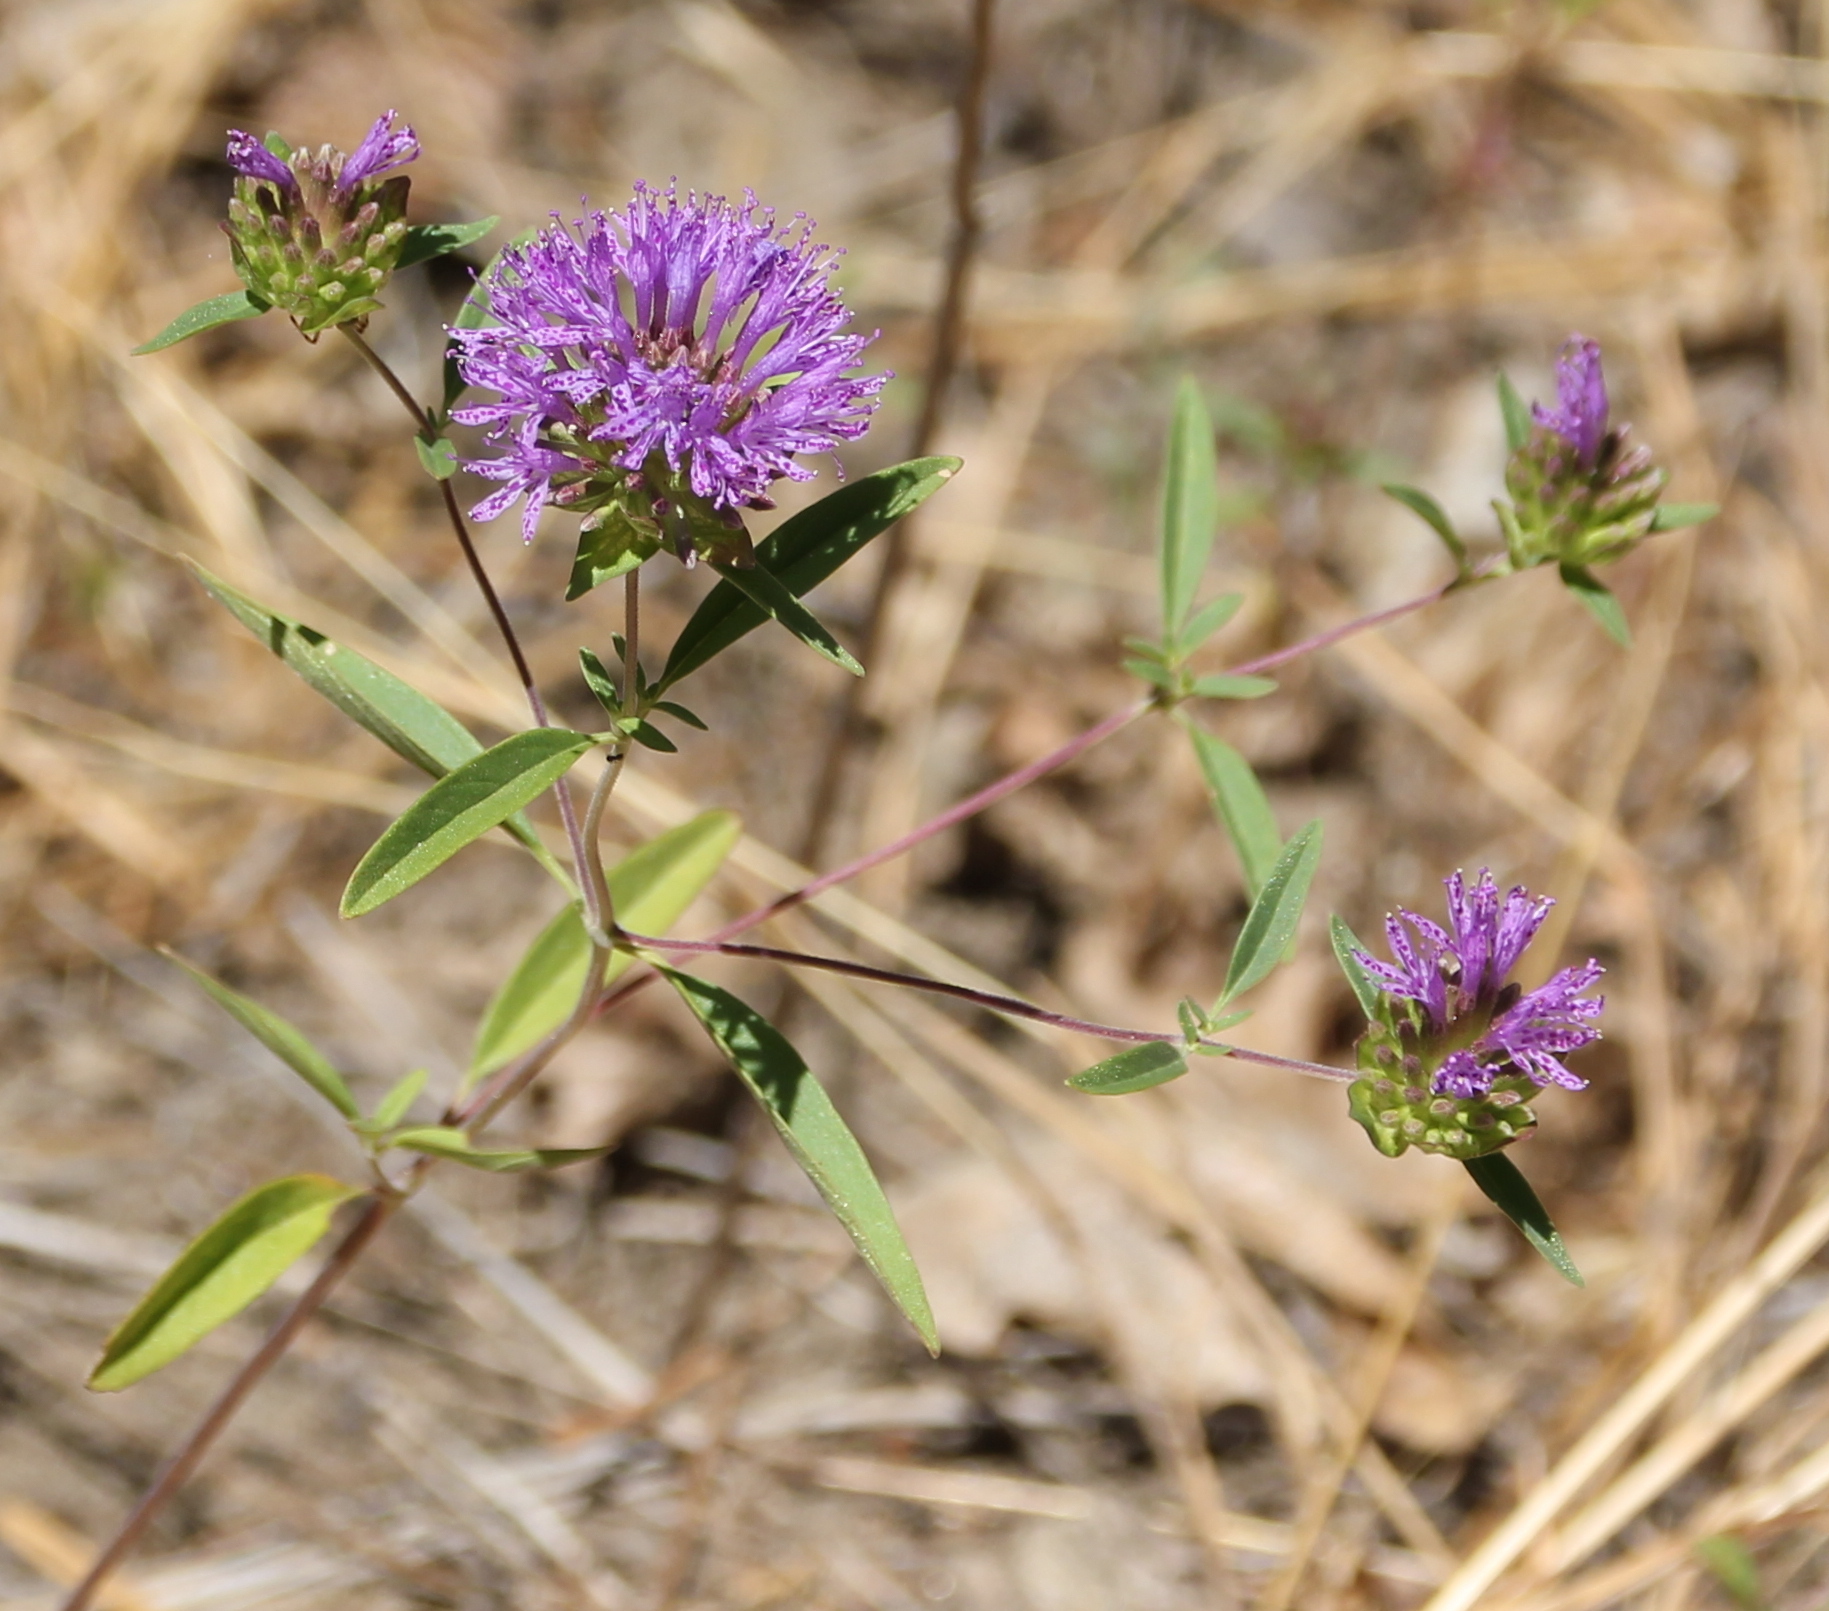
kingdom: Plantae
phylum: Tracheophyta
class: Magnoliopsida
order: Lamiales
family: Lamiaceae
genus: Monardella
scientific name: Monardella breweri
